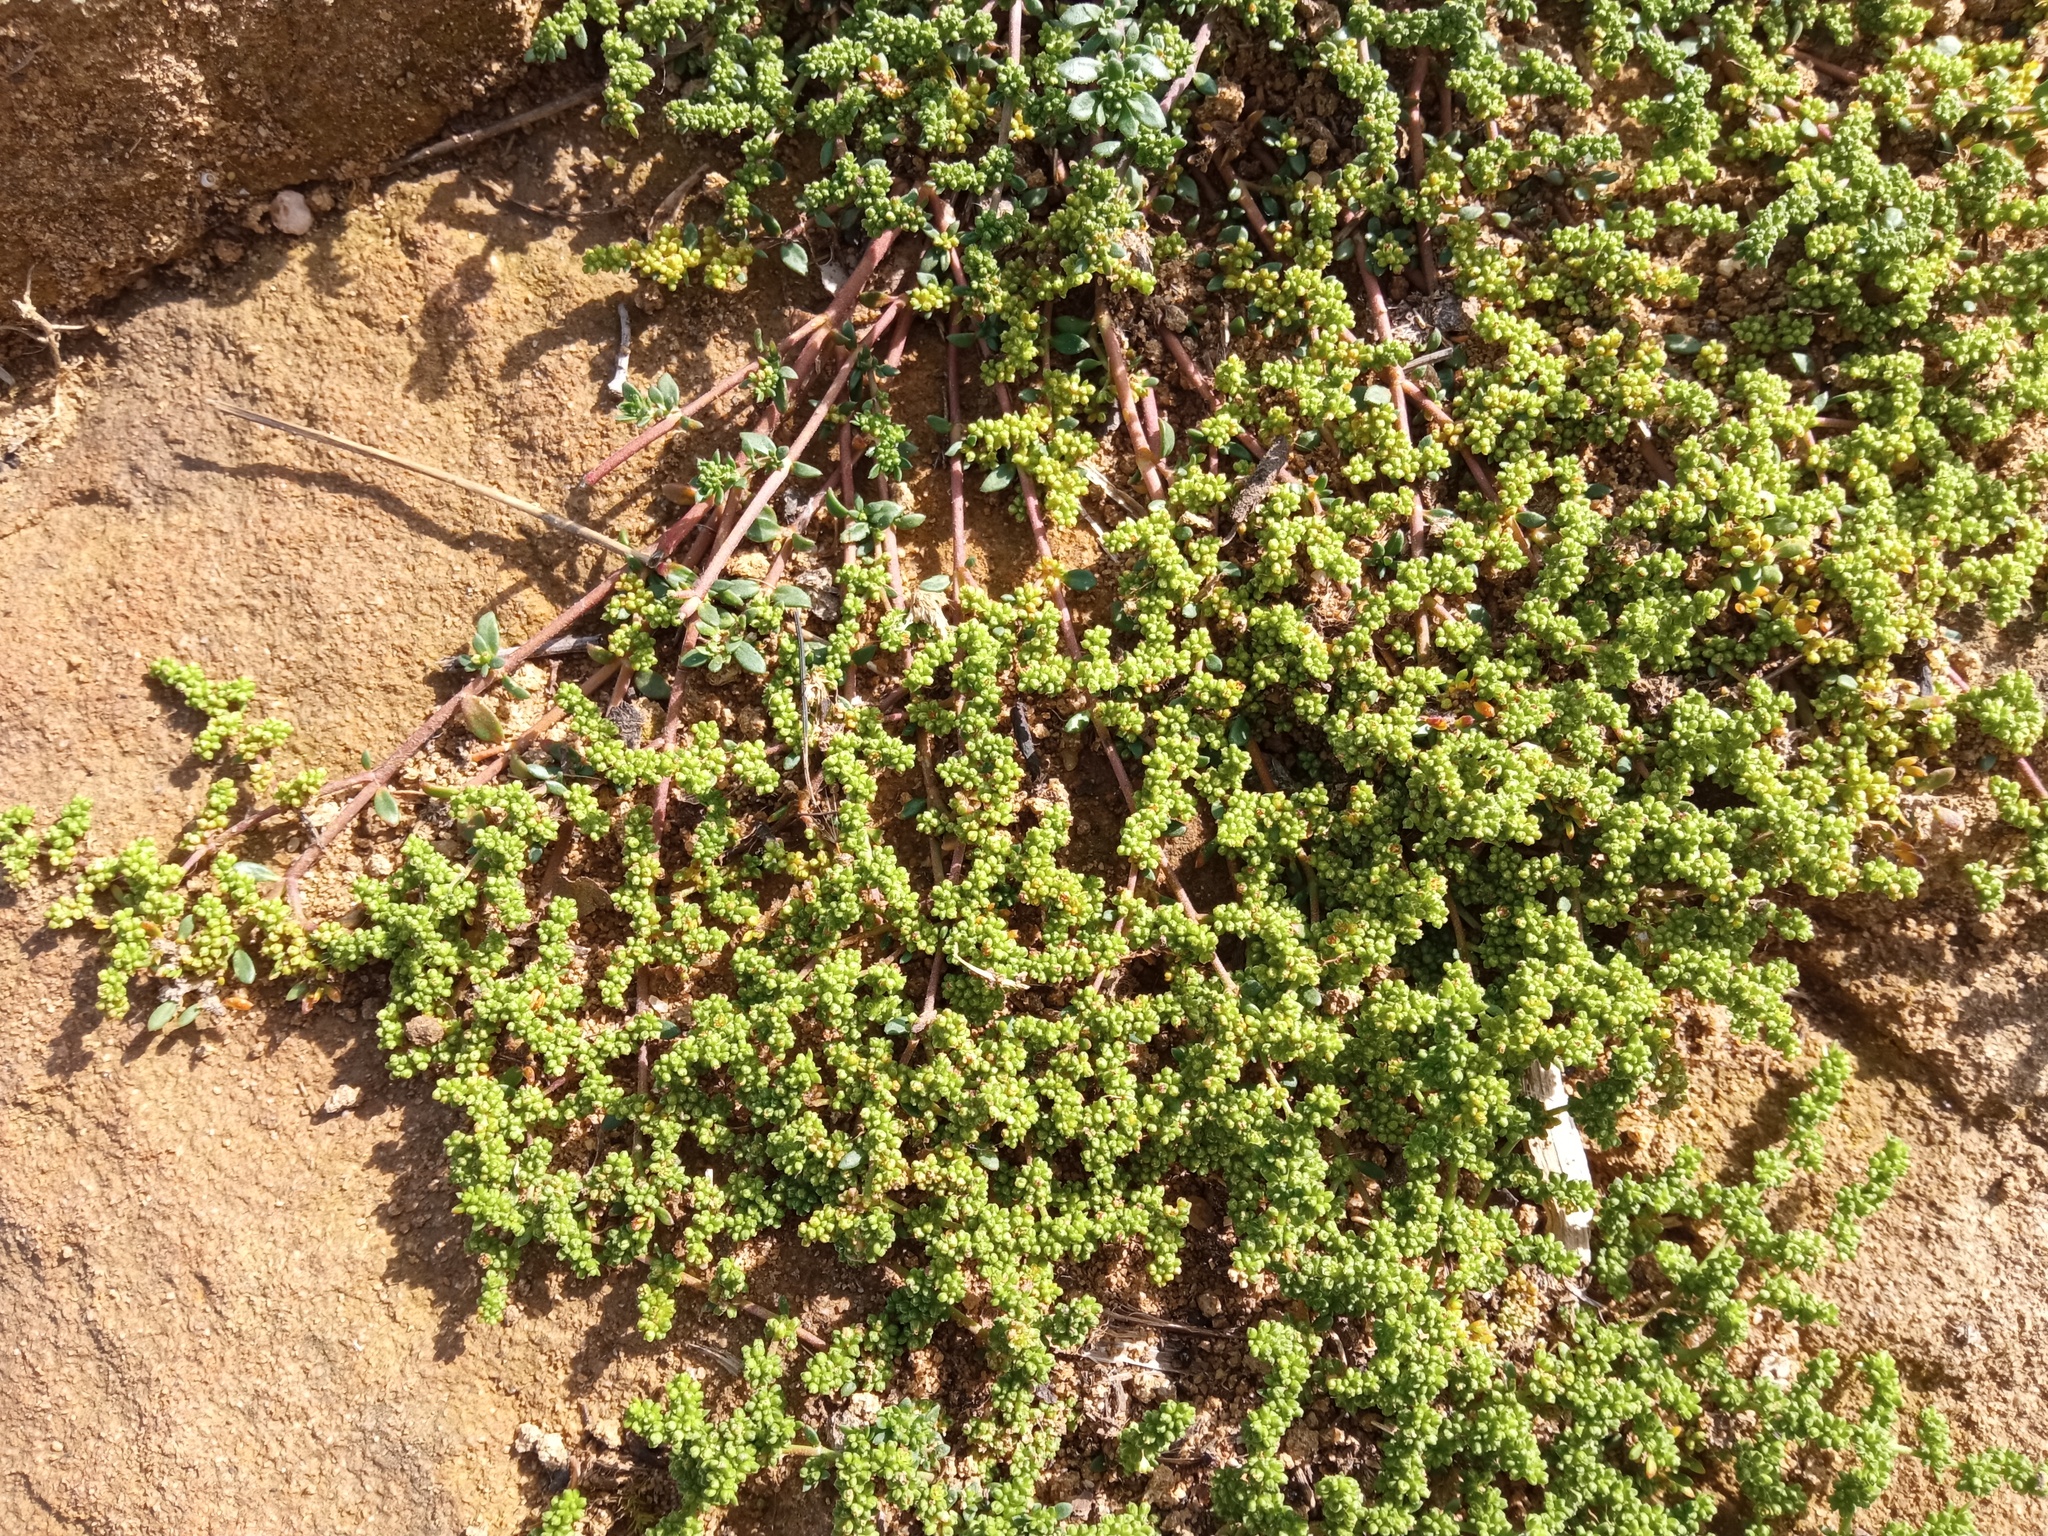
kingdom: Plantae
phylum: Tracheophyta
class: Magnoliopsida
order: Caryophyllales
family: Caryophyllaceae
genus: Herniaria
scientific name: Herniaria glabra
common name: Smooth rupturewort
